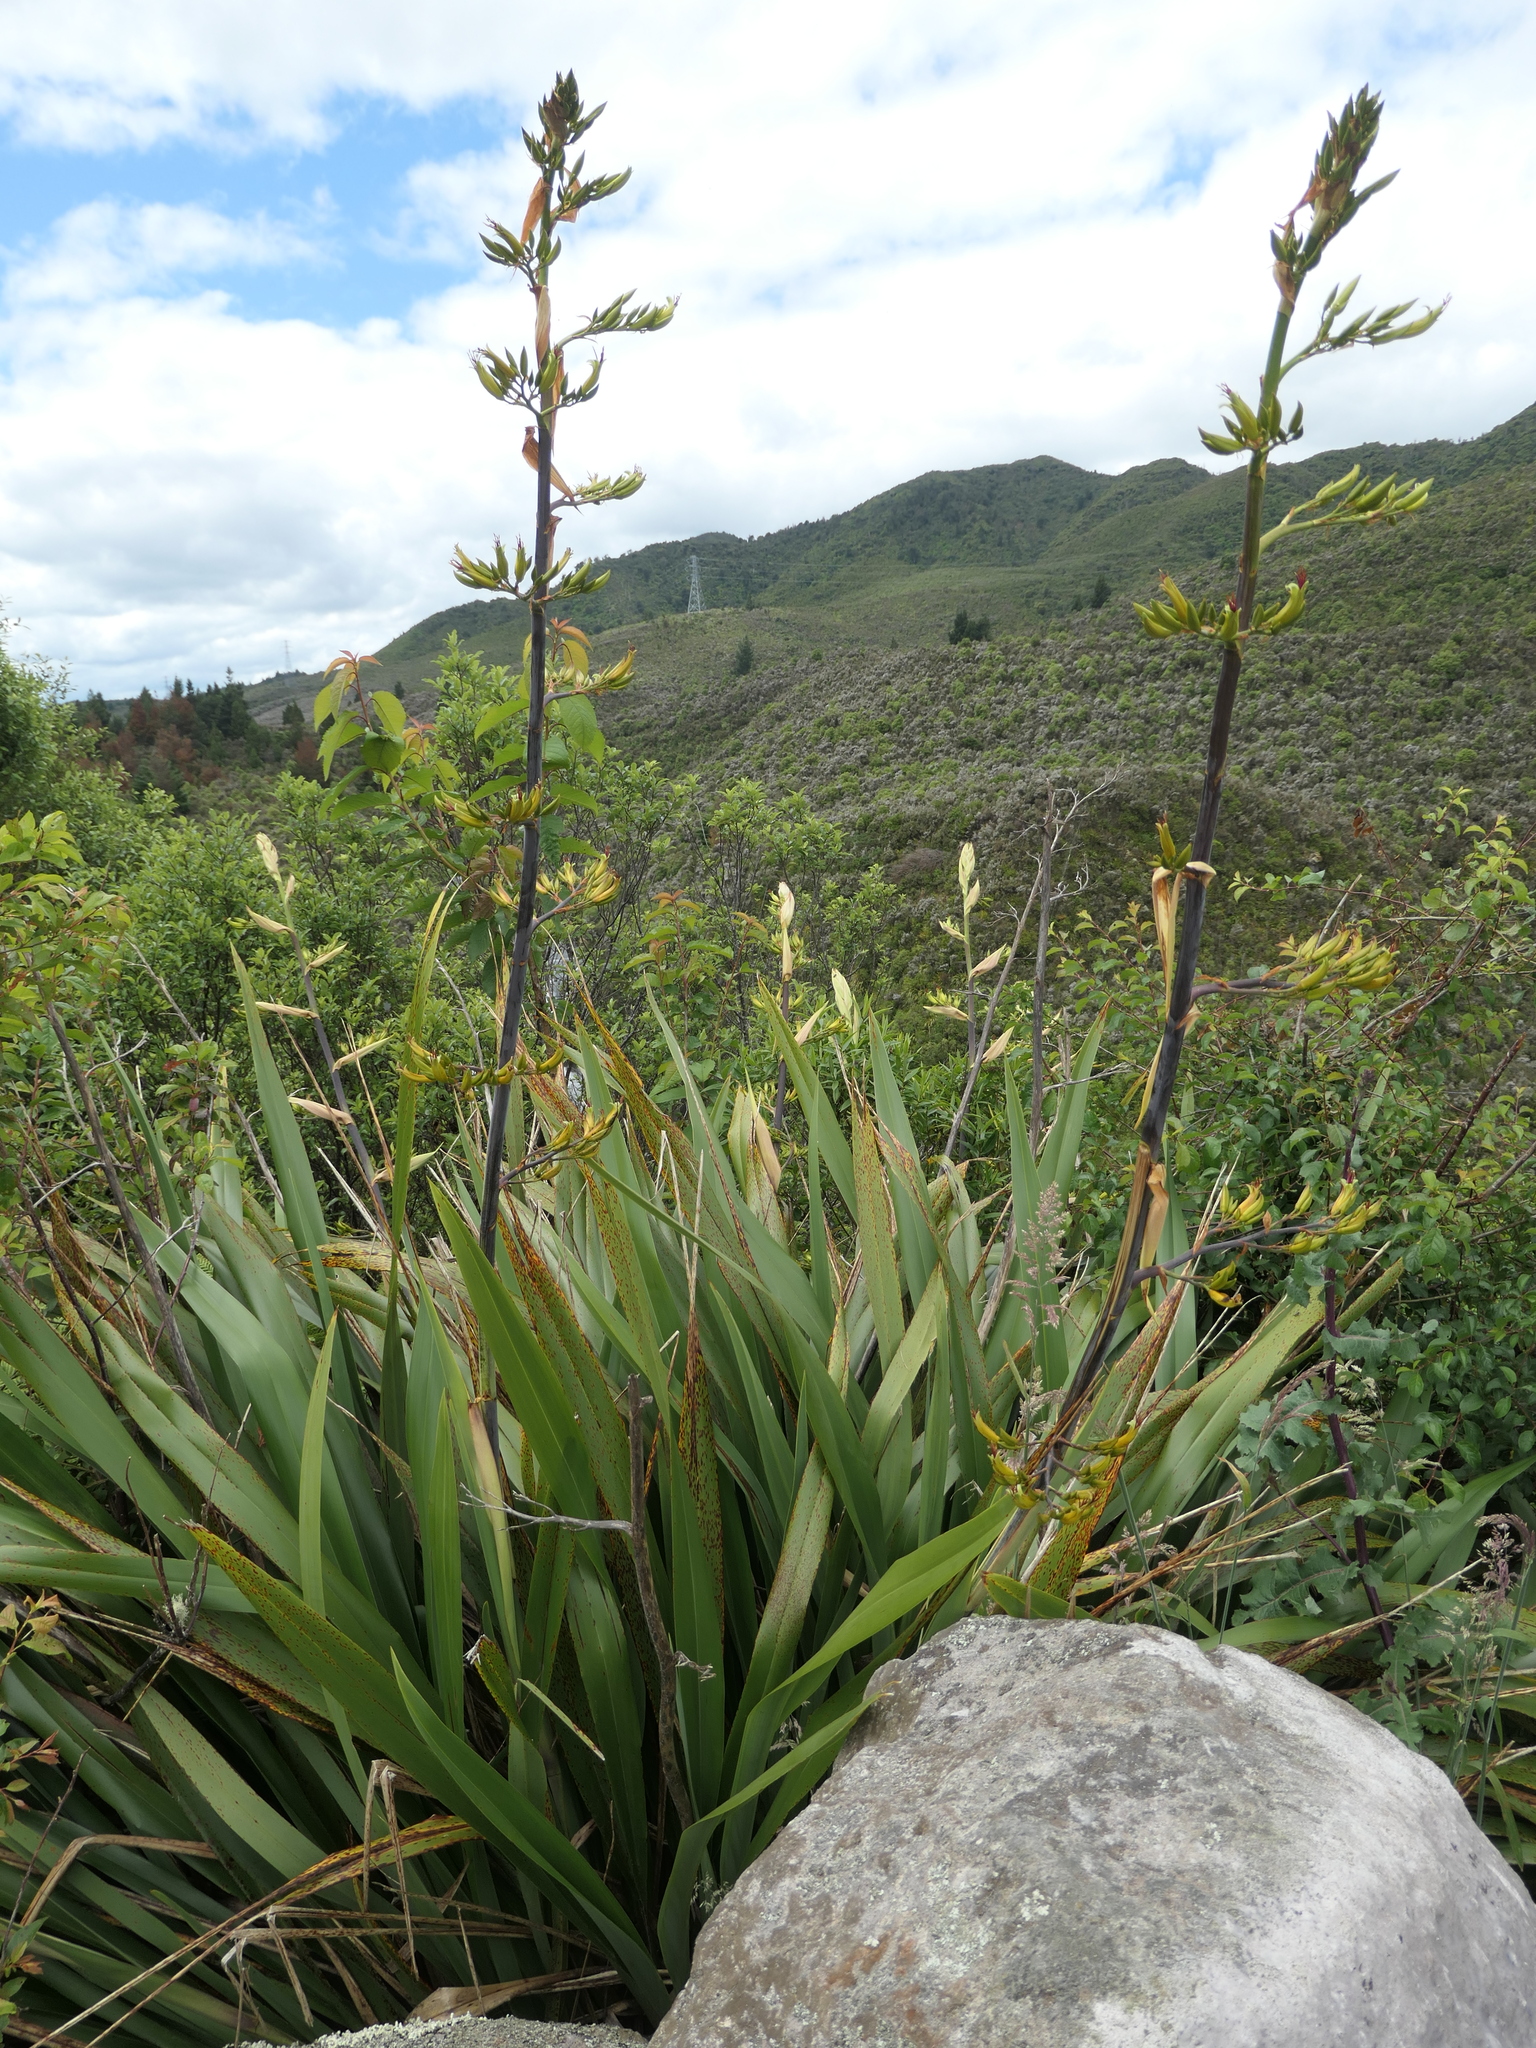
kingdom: Plantae
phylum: Tracheophyta
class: Liliopsida
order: Asparagales
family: Asphodelaceae
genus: Phormium
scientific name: Phormium tenax
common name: New zealand flax
